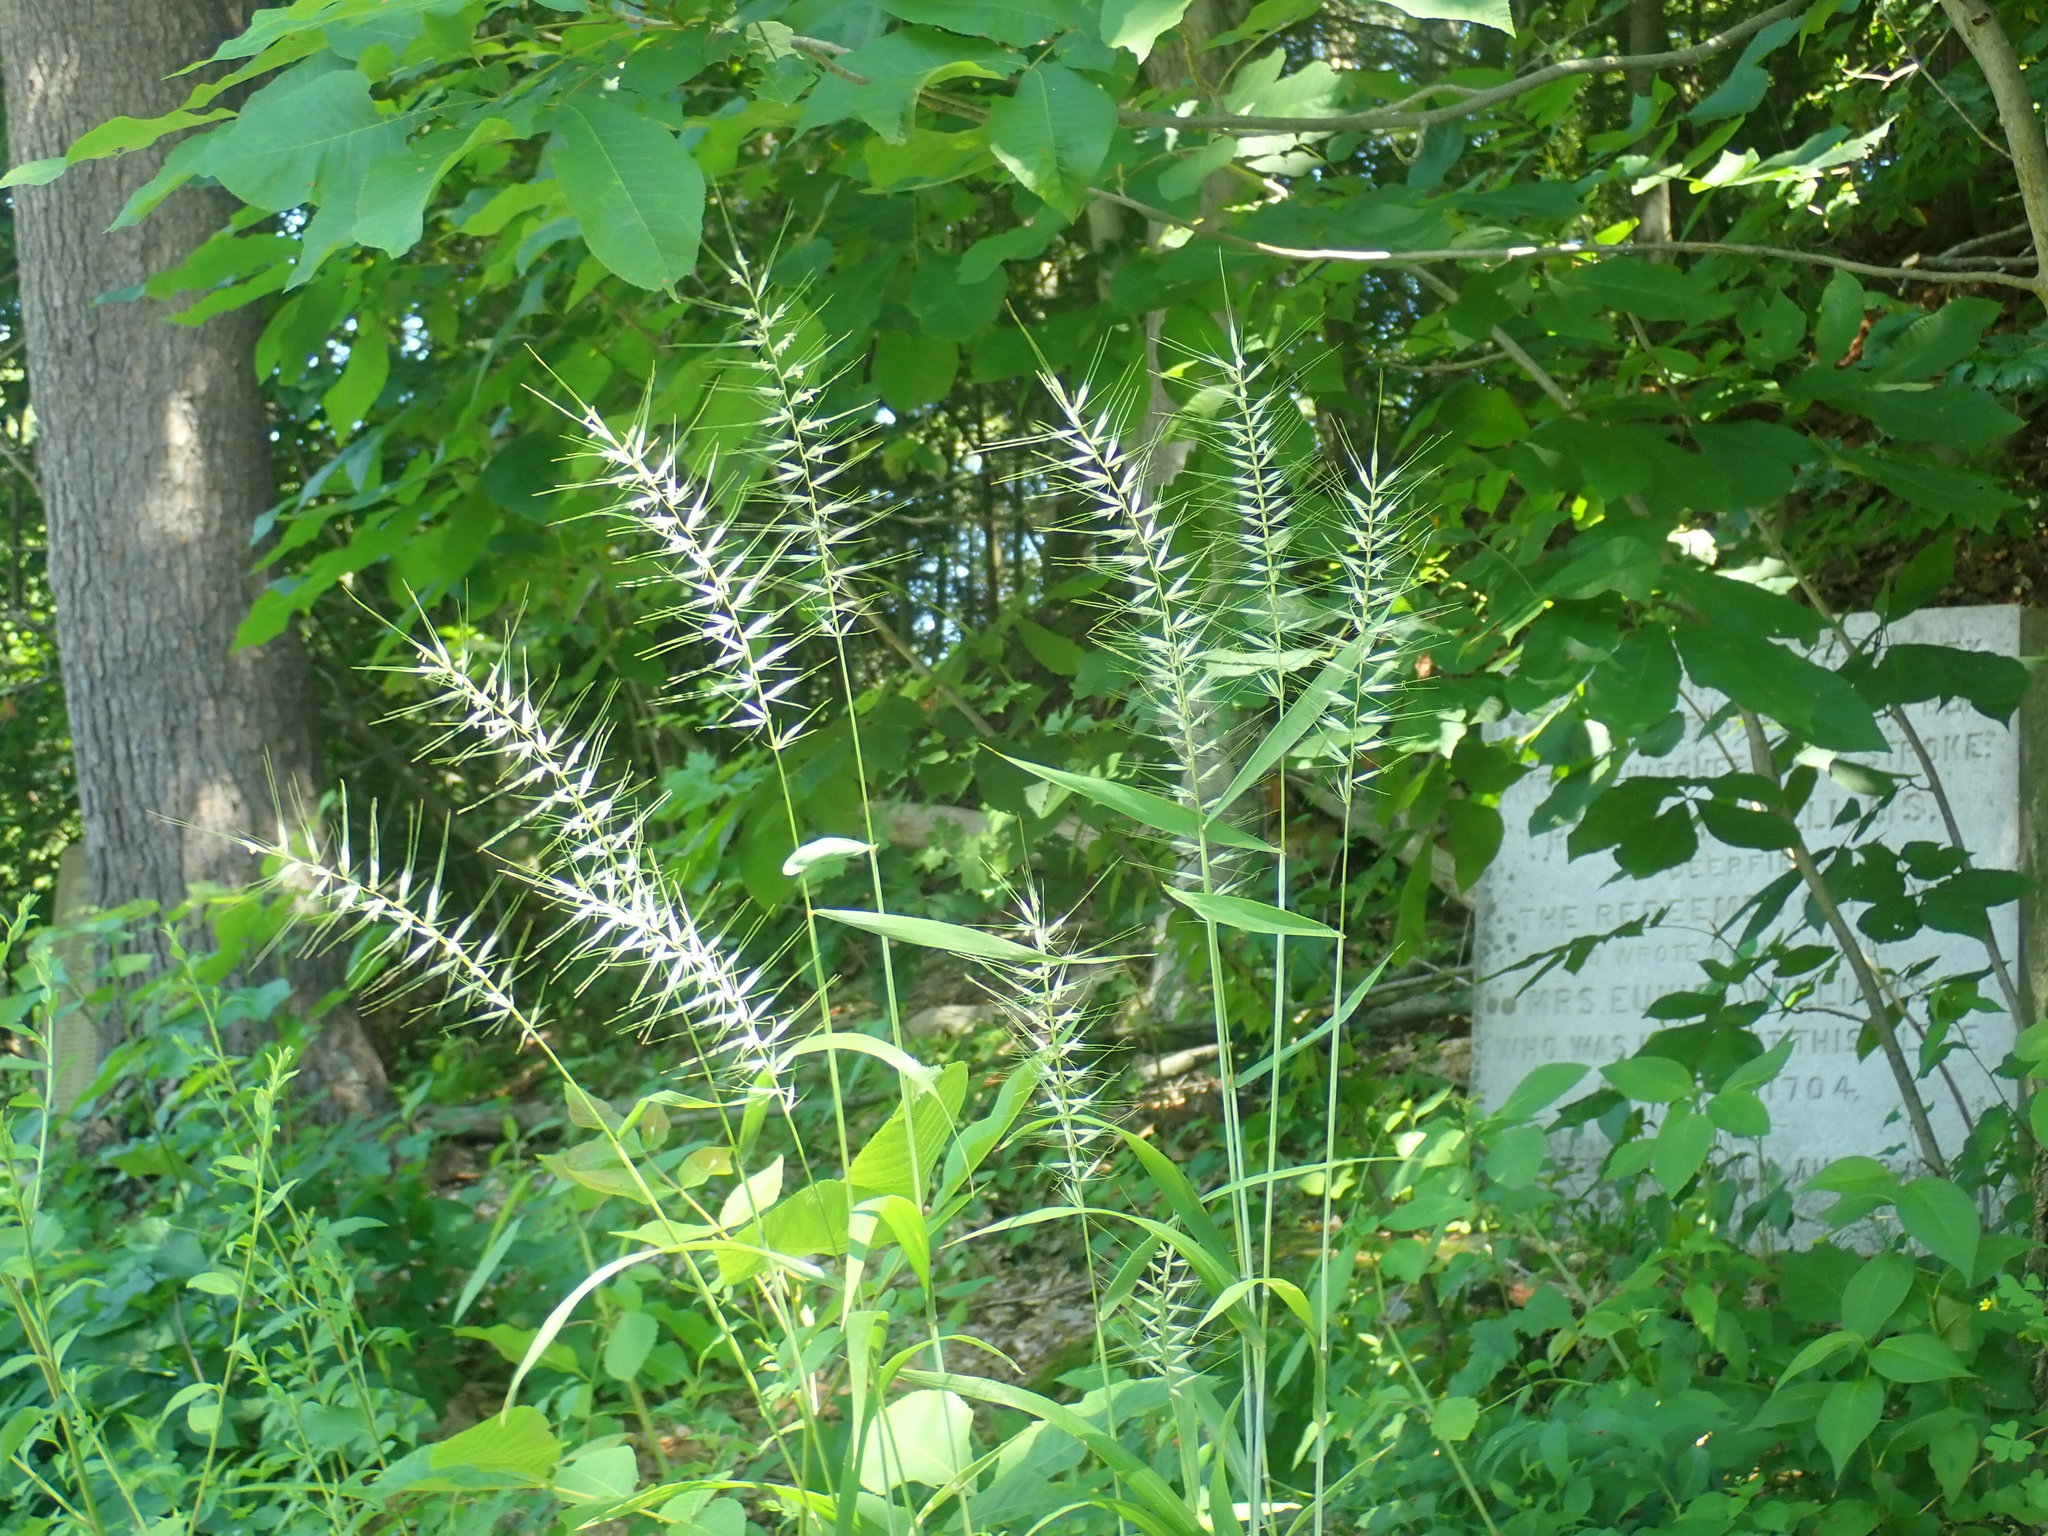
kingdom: Plantae
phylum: Tracheophyta
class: Liliopsida
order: Poales
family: Poaceae
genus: Elymus
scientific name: Elymus hystrix
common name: Bottlebrush grass
